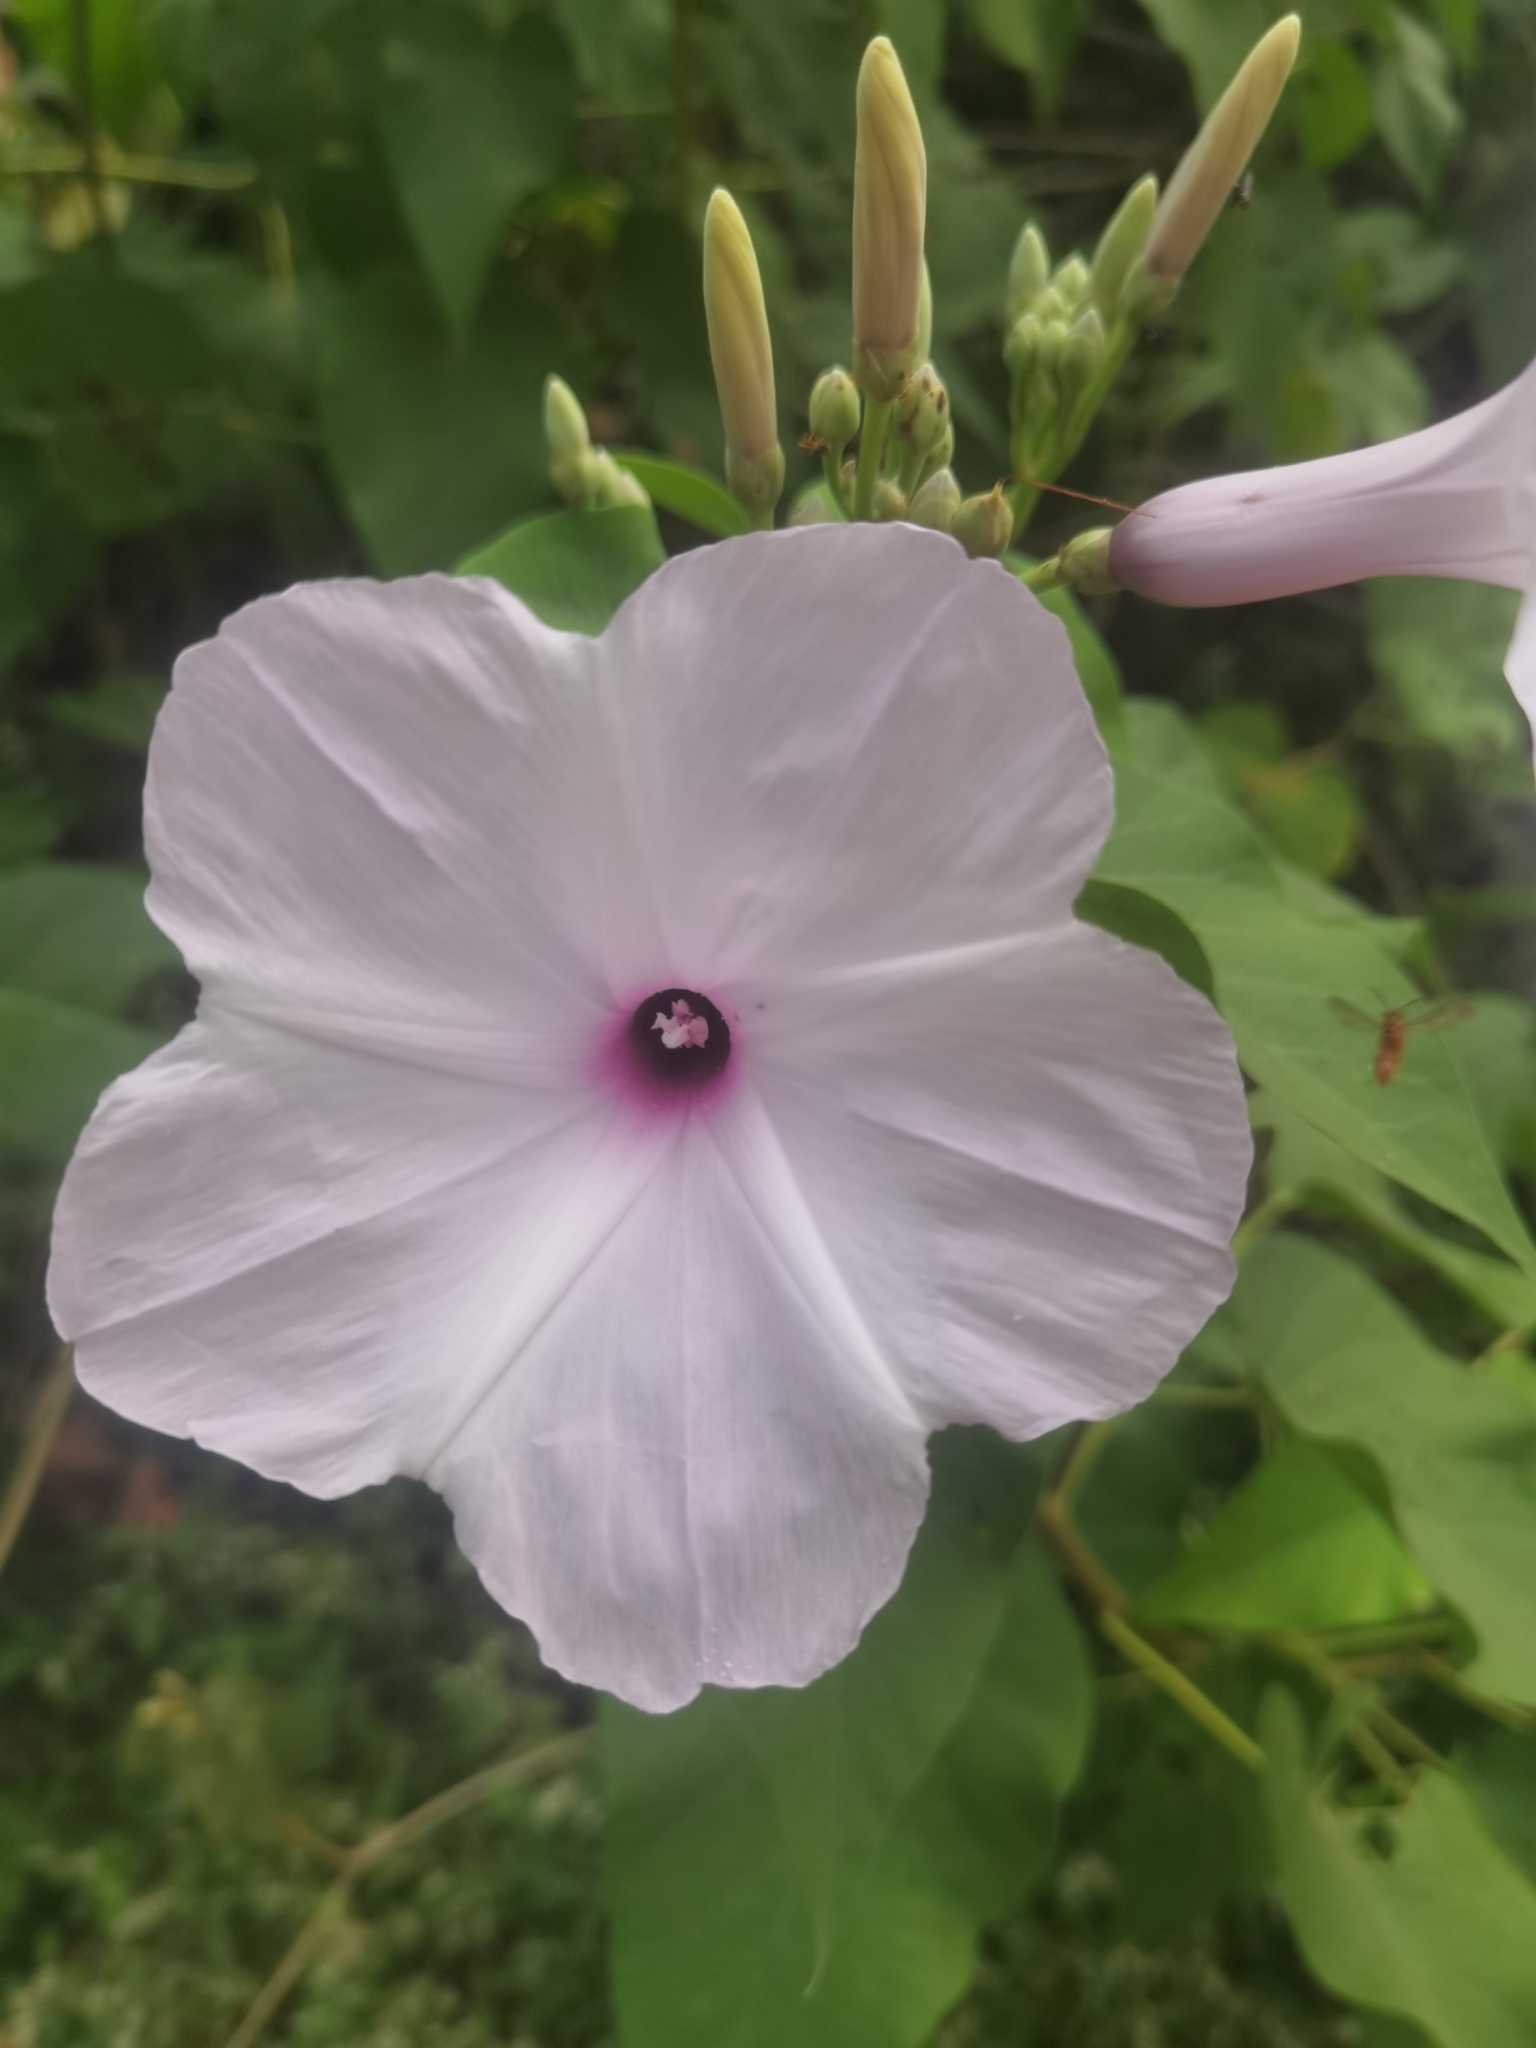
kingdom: Plantae
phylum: Tracheophyta
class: Magnoliopsida
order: Solanales
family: Convolvulaceae
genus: Ipomoea
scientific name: Ipomoea carnea
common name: Morning-glory
